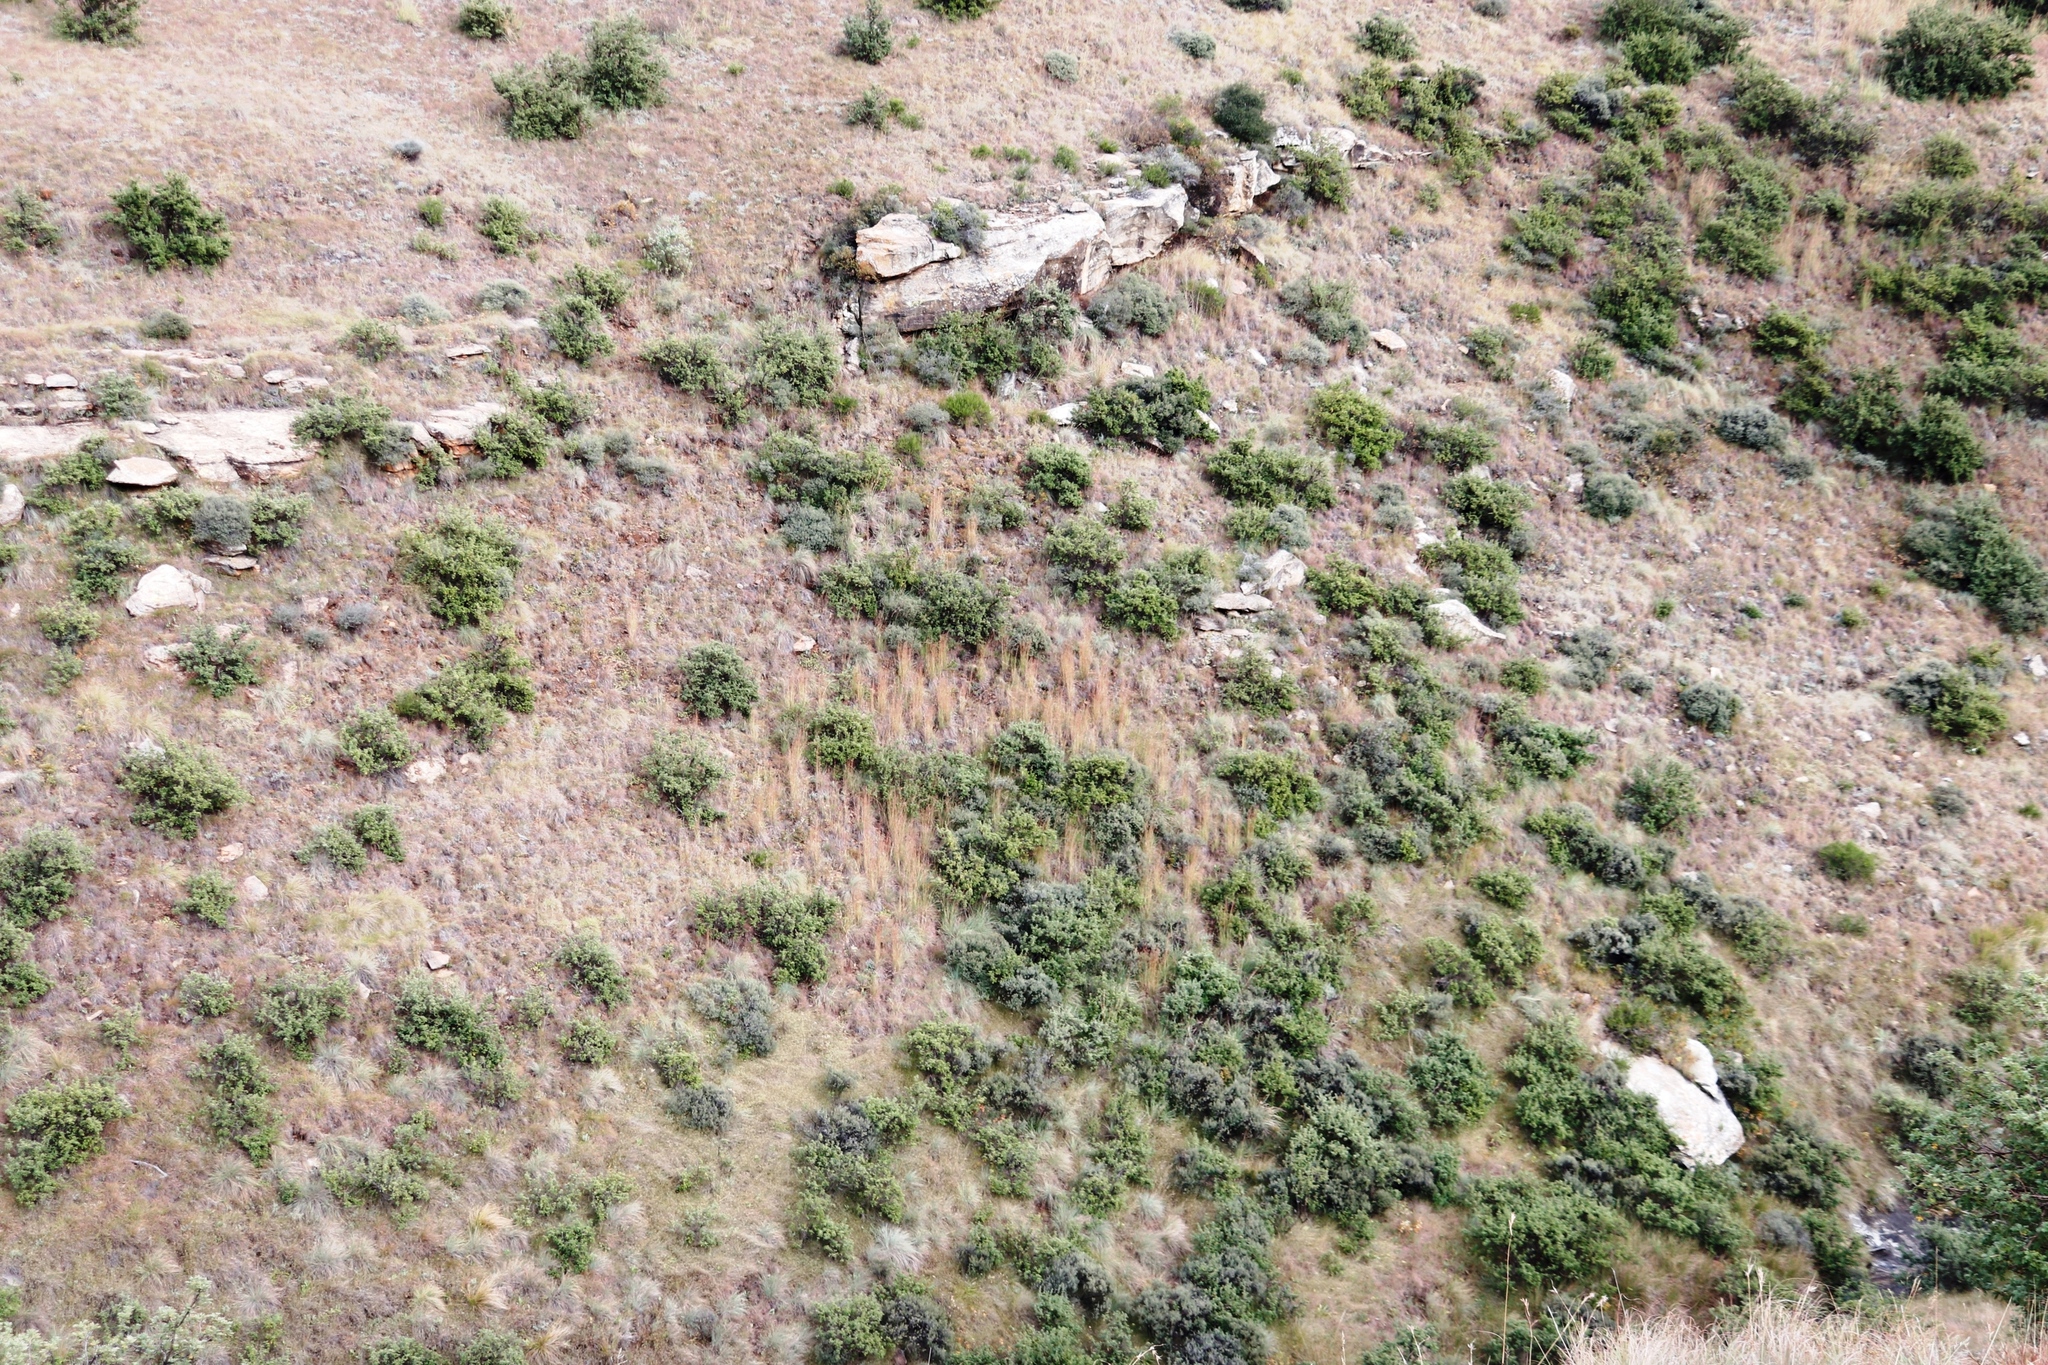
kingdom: Plantae
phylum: Tracheophyta
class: Magnoliopsida
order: Rosales
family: Rosaceae
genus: Leucosidea
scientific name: Leucosidea sericea
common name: Oldwood
